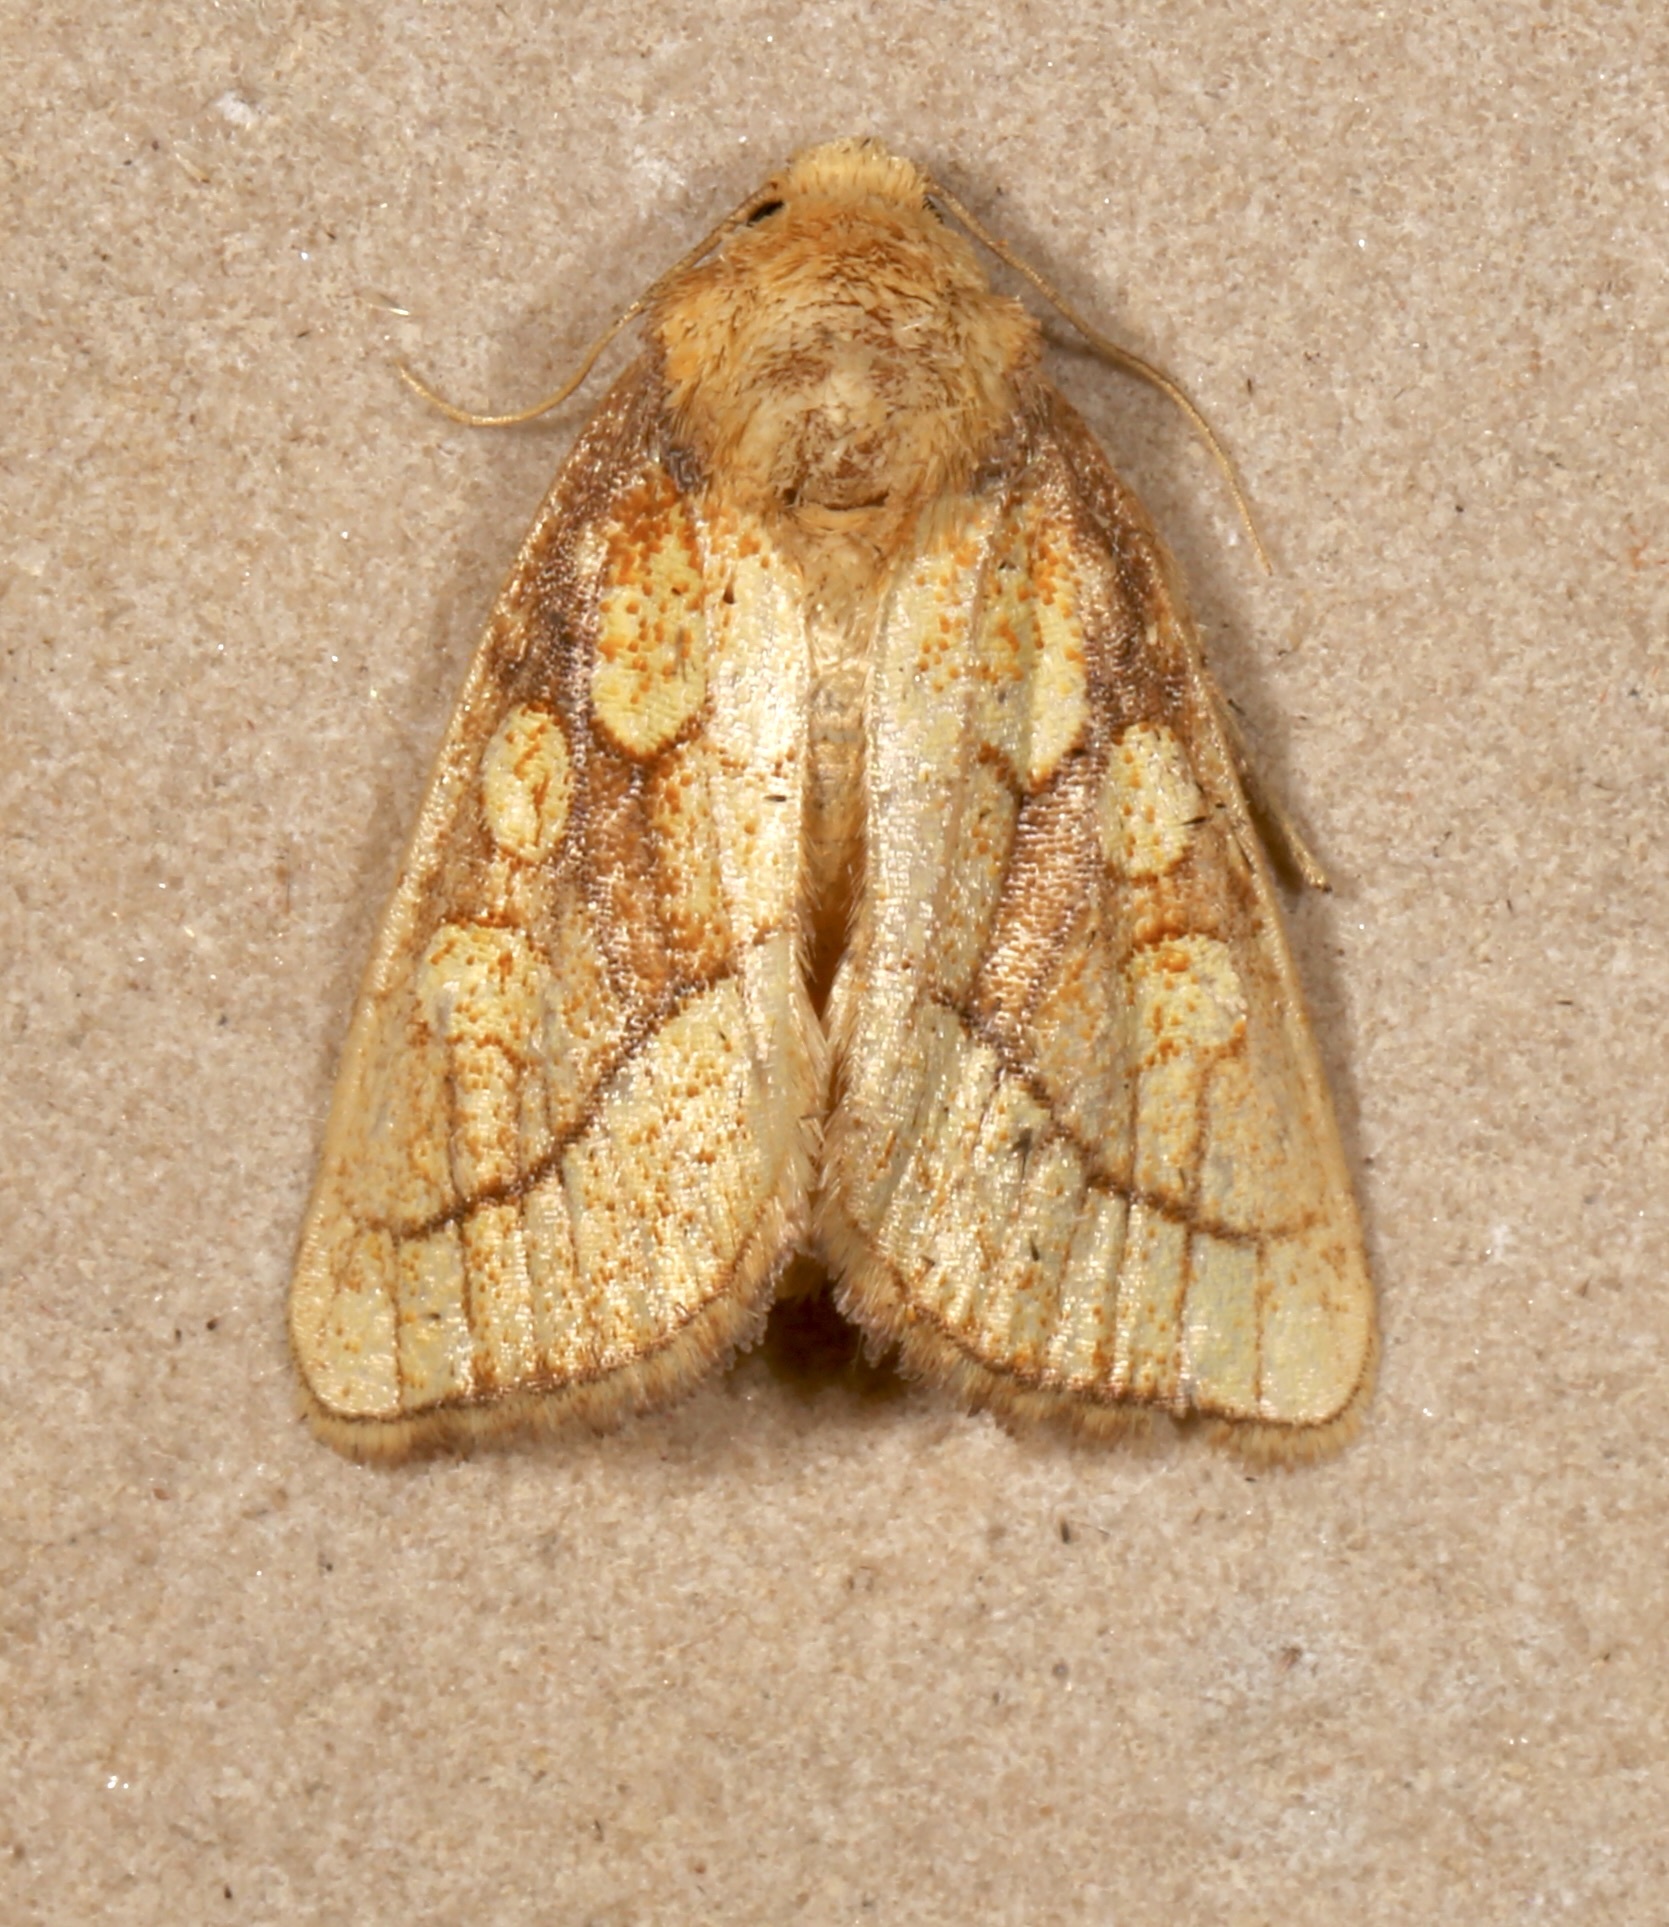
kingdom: Animalia
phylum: Arthropoda
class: Insecta
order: Lepidoptera
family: Noctuidae
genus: Nocloa
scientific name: Nocloa alcandra
